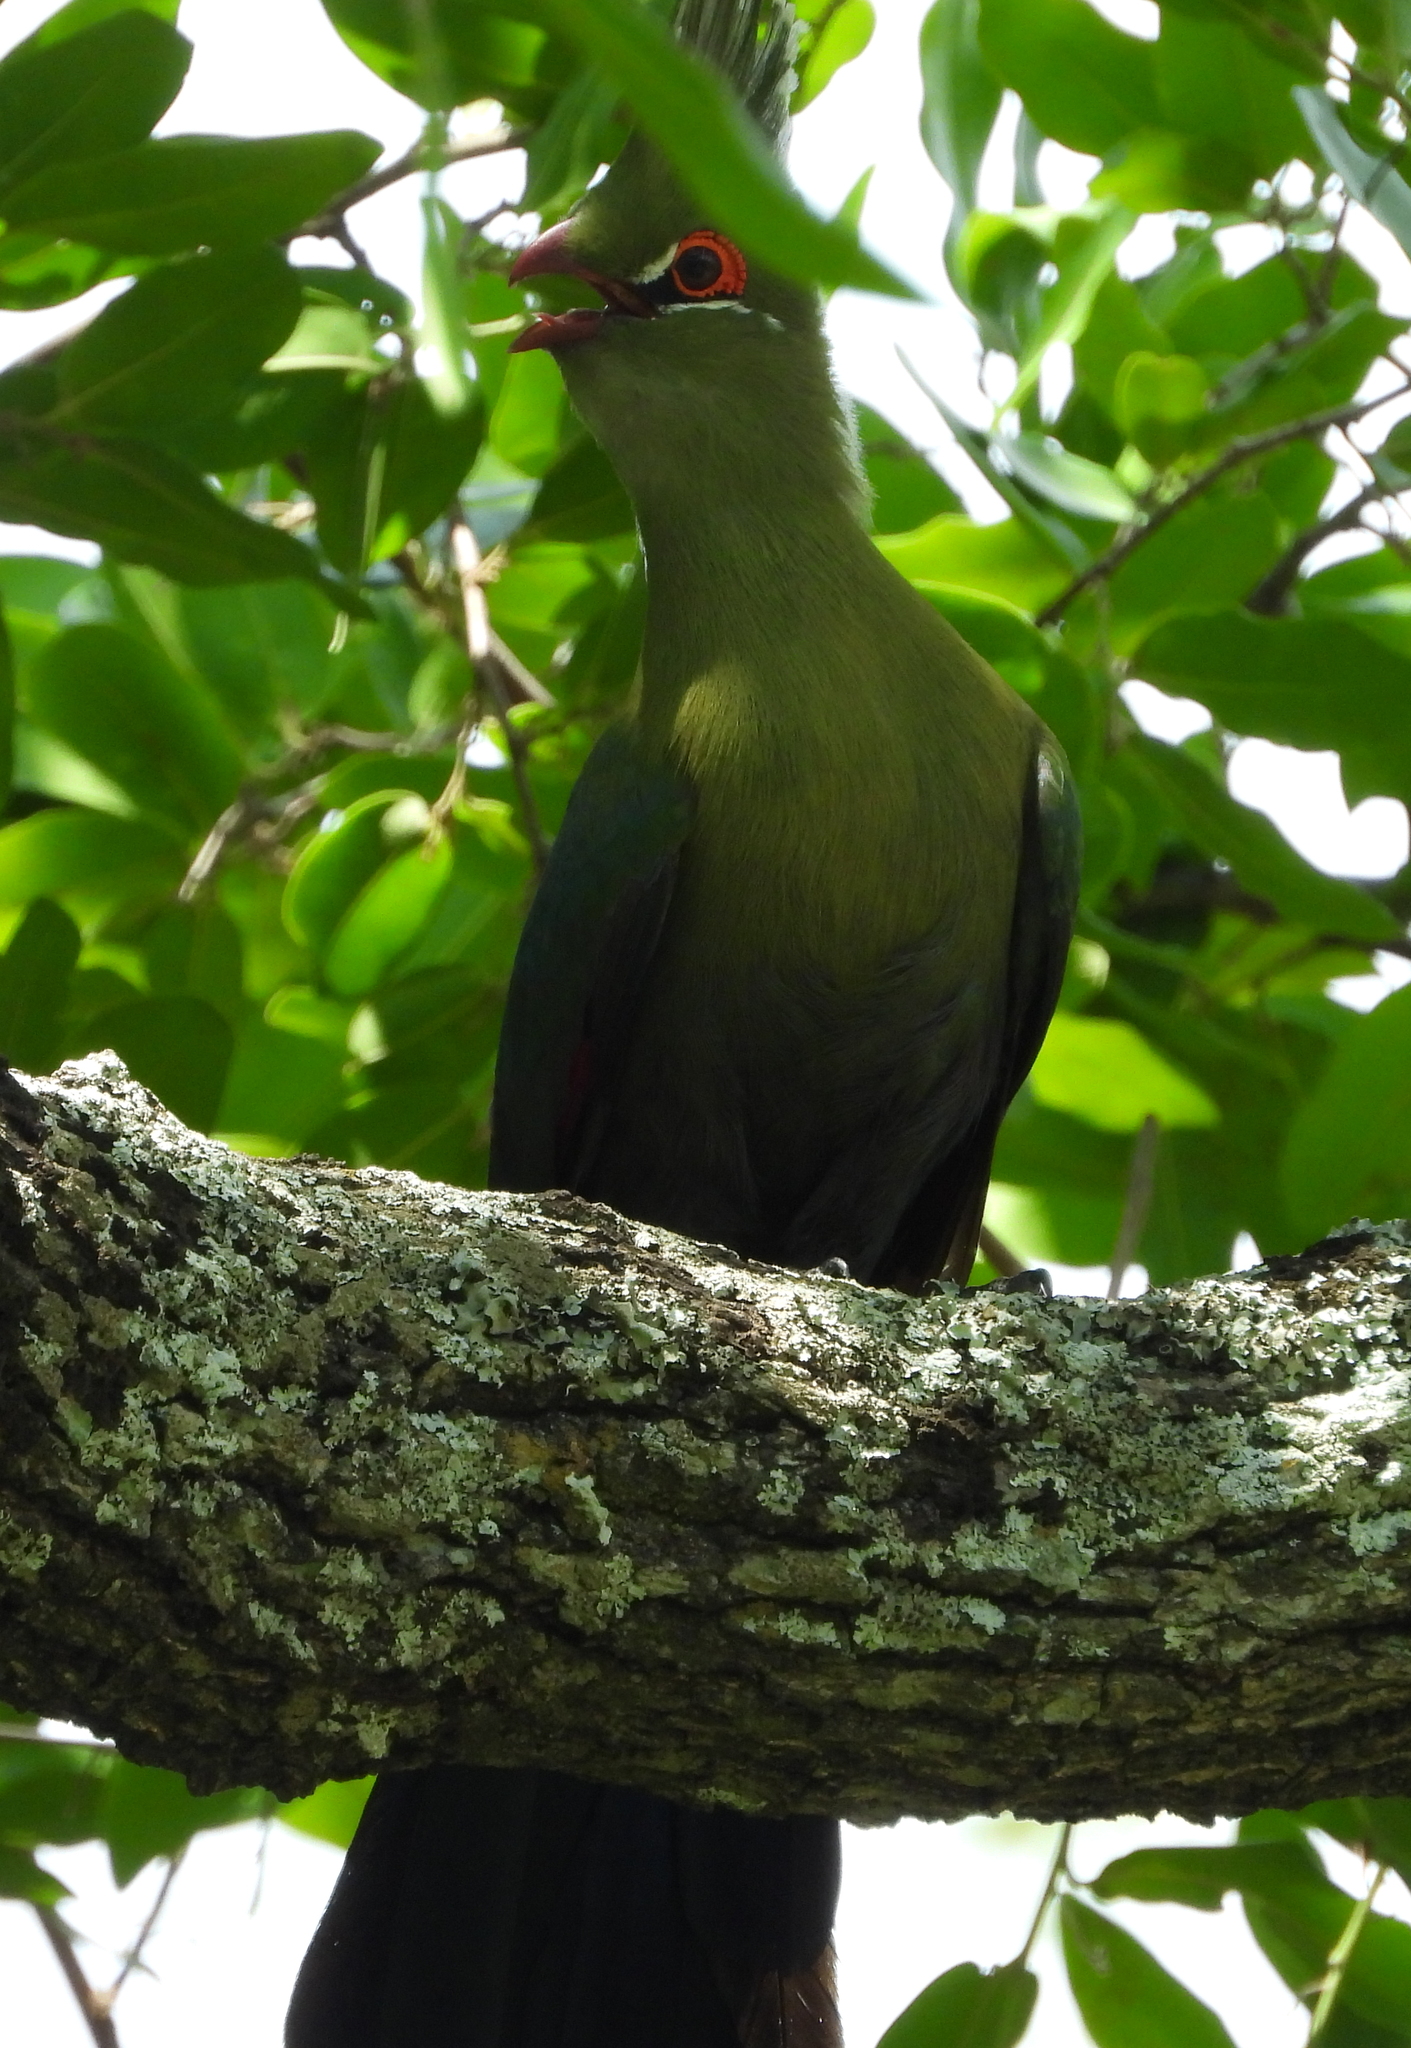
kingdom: Animalia
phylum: Chordata
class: Aves
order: Musophagiformes
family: Musophagidae
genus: Tauraco
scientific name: Tauraco schalowi
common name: Schalow's turaco
